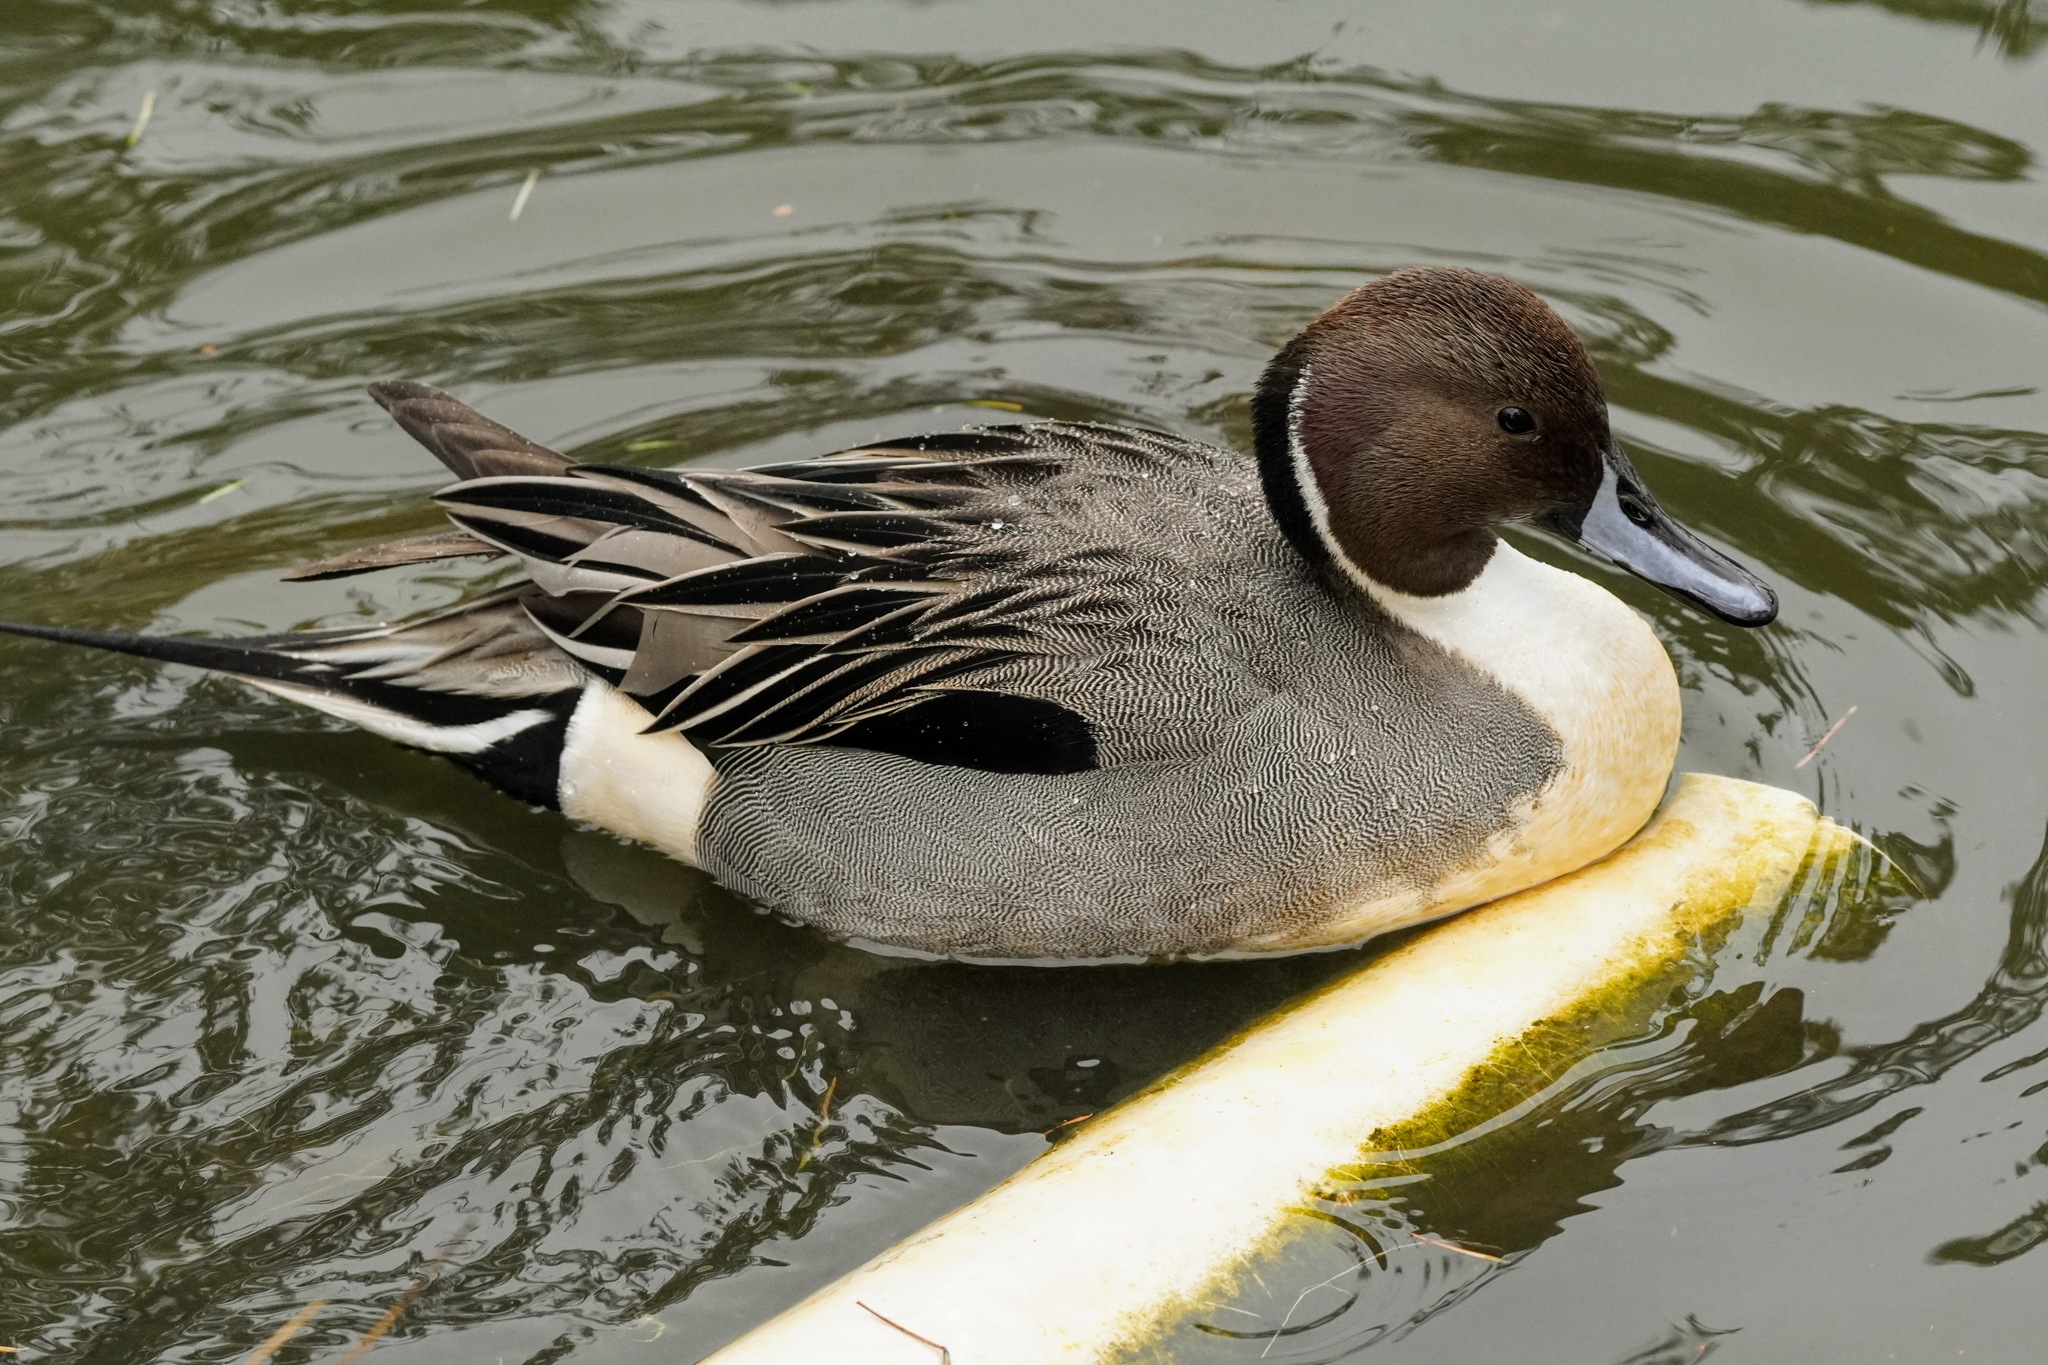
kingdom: Animalia
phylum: Chordata
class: Aves
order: Anseriformes
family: Anatidae
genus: Anas
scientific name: Anas acuta
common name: Northern pintail
